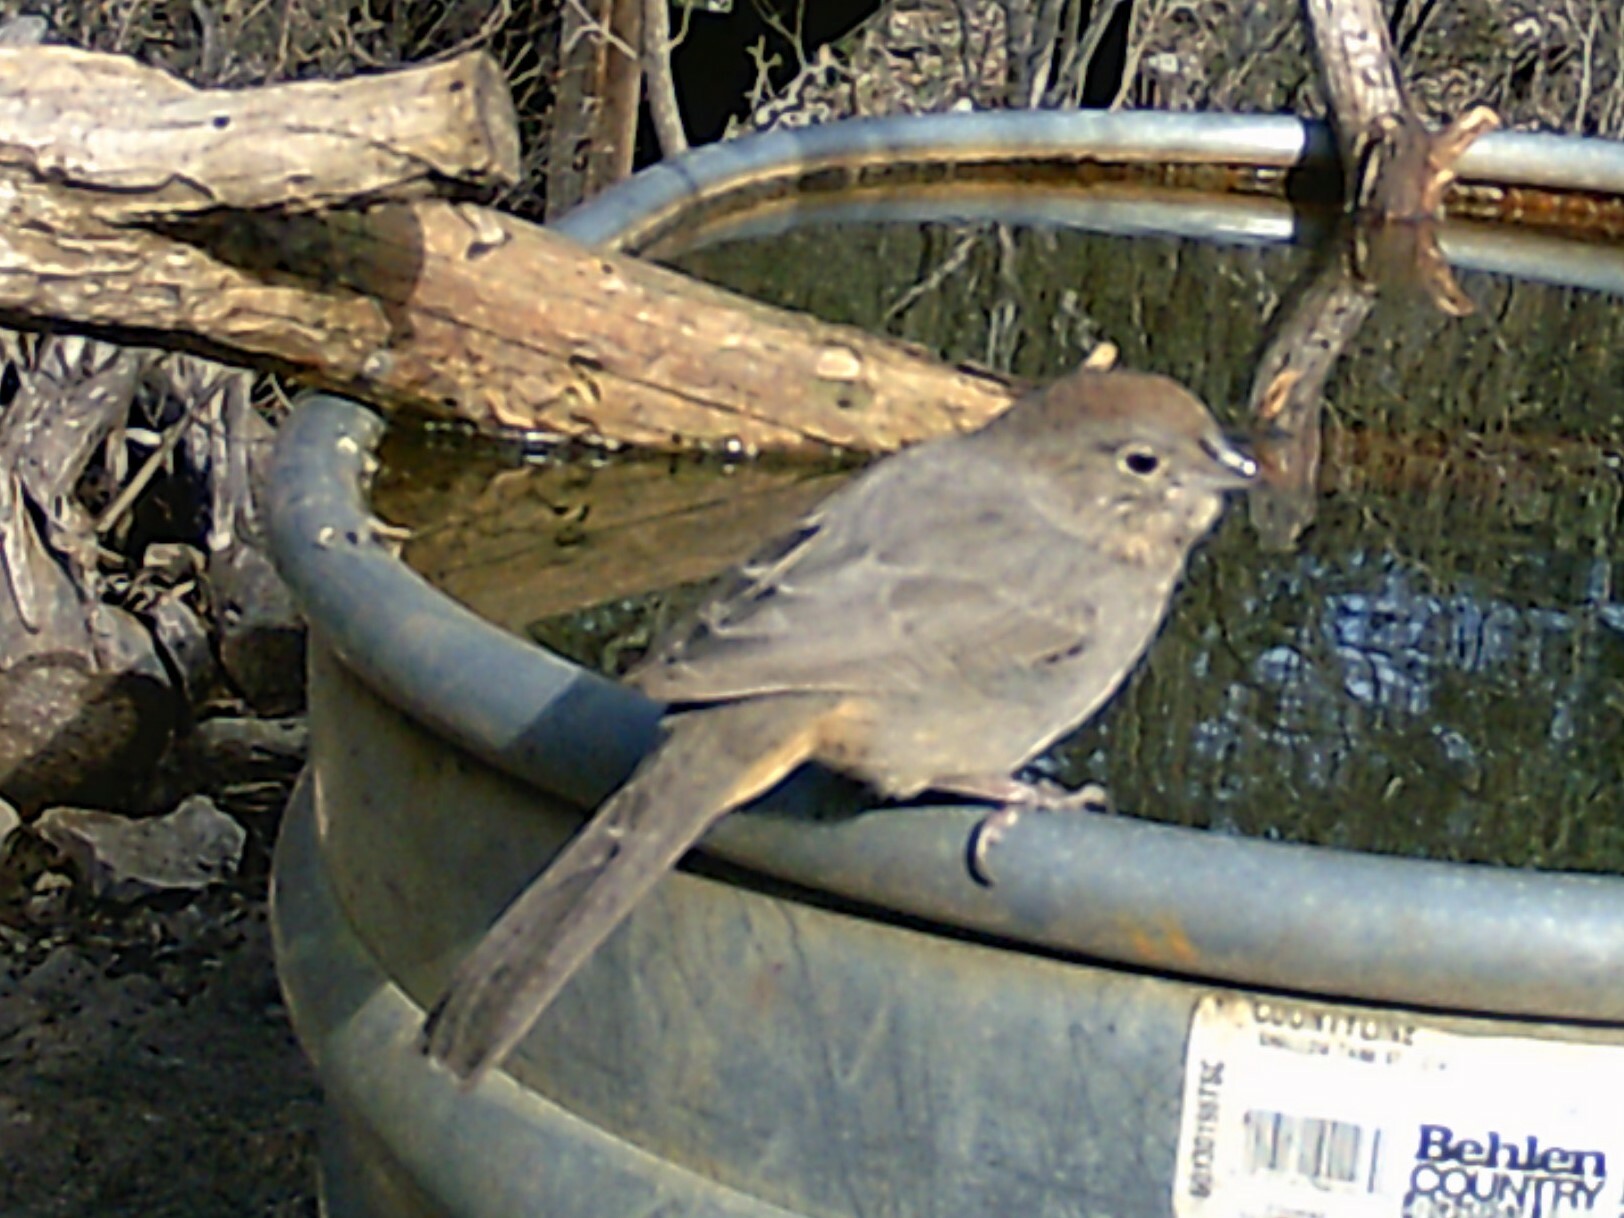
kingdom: Animalia
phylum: Chordata
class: Aves
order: Passeriformes
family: Passerellidae
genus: Melozone
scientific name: Melozone fusca
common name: Canyon towhee
